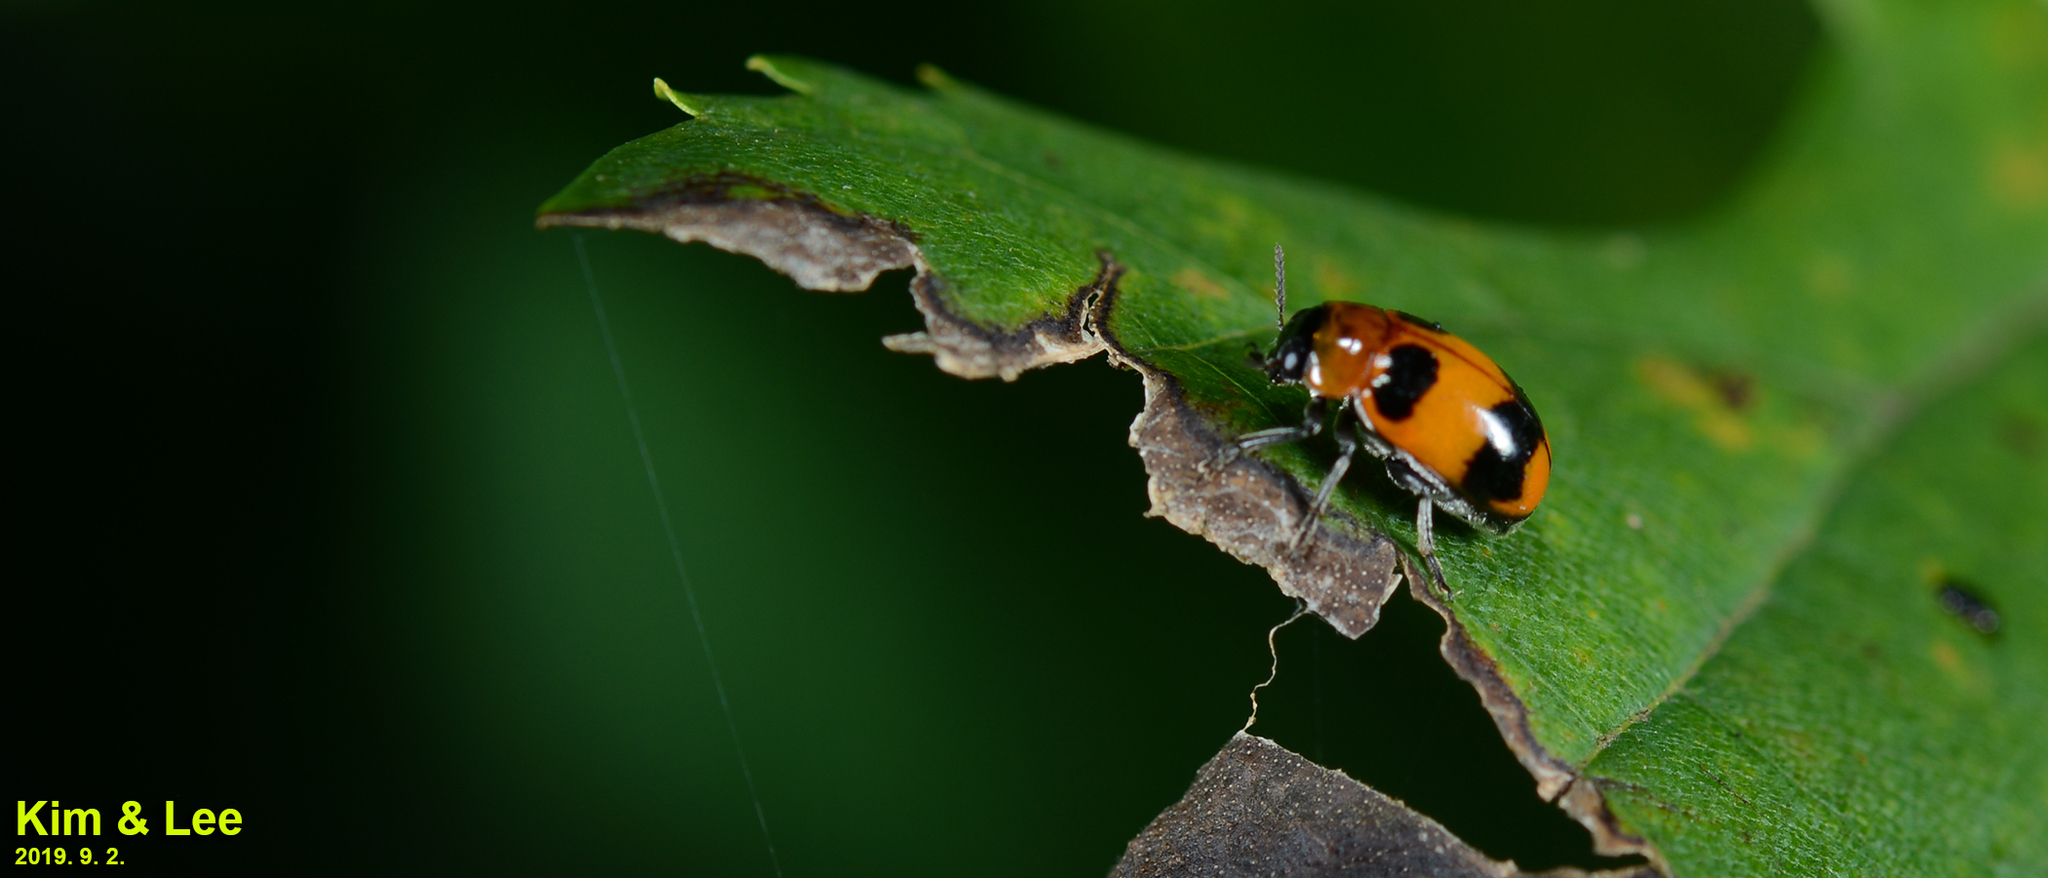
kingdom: Animalia
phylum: Arthropoda
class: Insecta
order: Coleoptera
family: Chrysomelidae
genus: Physosmaragdina
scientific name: Physosmaragdina nigrifrons
